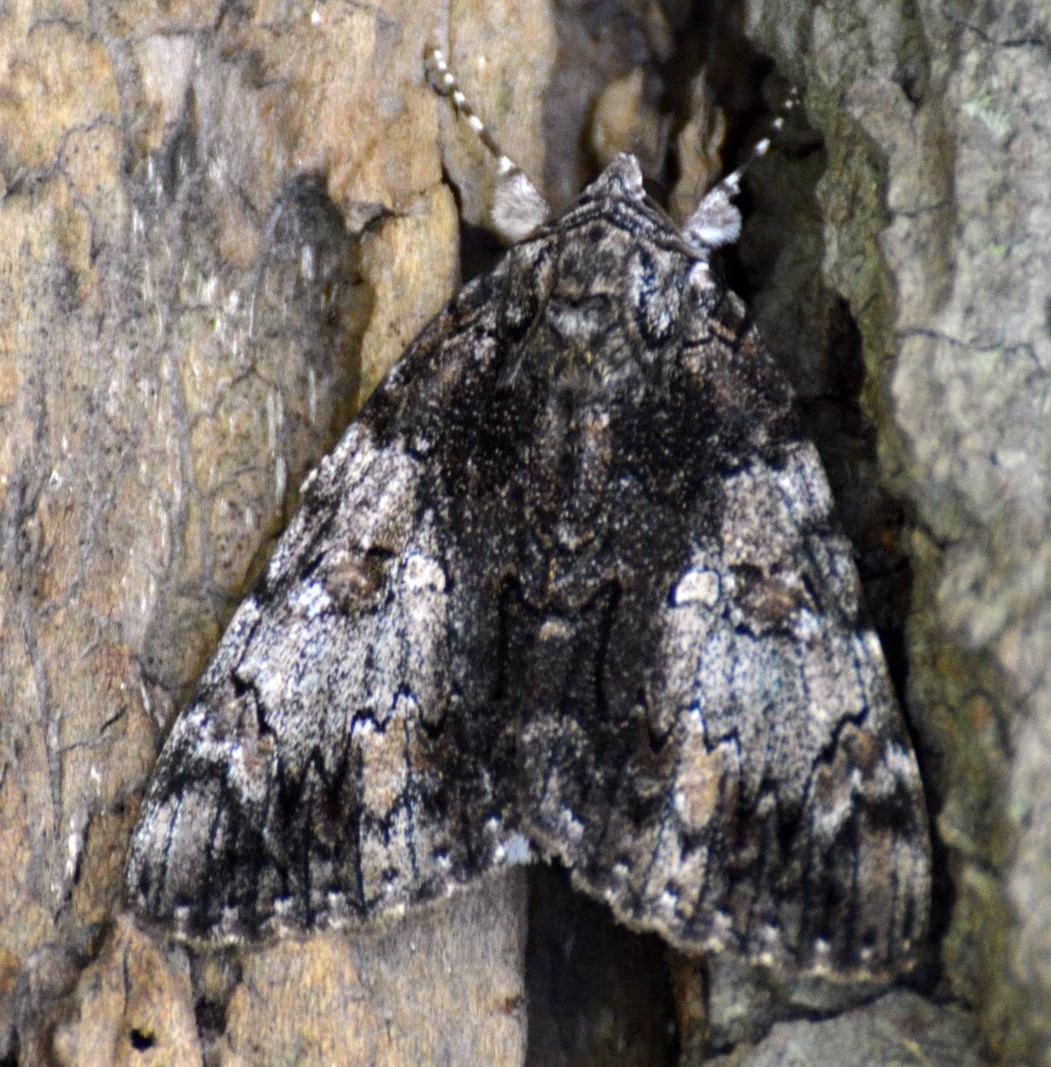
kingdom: Animalia
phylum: Arthropoda
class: Insecta
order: Lepidoptera
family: Erebidae
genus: Catocala
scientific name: Catocala lacrymosa
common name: Tearful underwing
